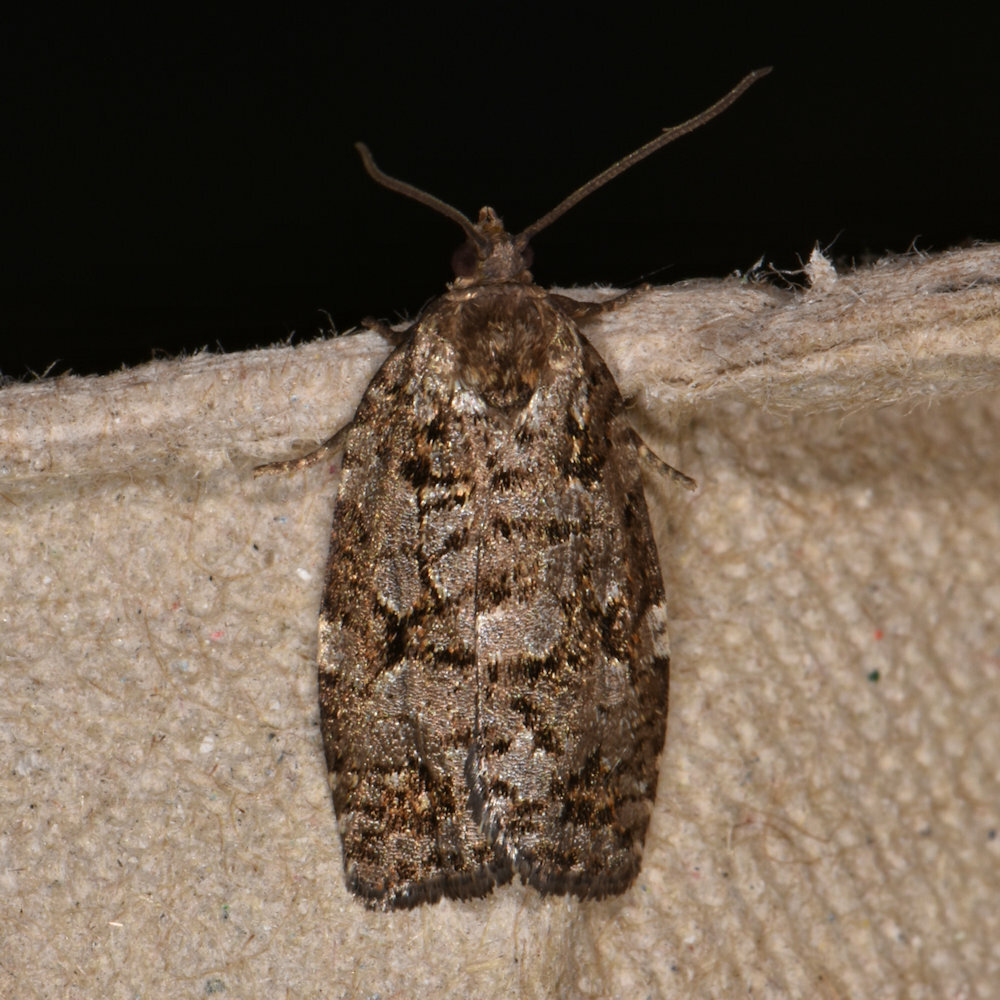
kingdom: Animalia
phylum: Arthropoda
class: Insecta
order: Lepidoptera
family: Tortricidae
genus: Choristoneura
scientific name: Choristoneura fumiferana
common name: Spruce budworm
